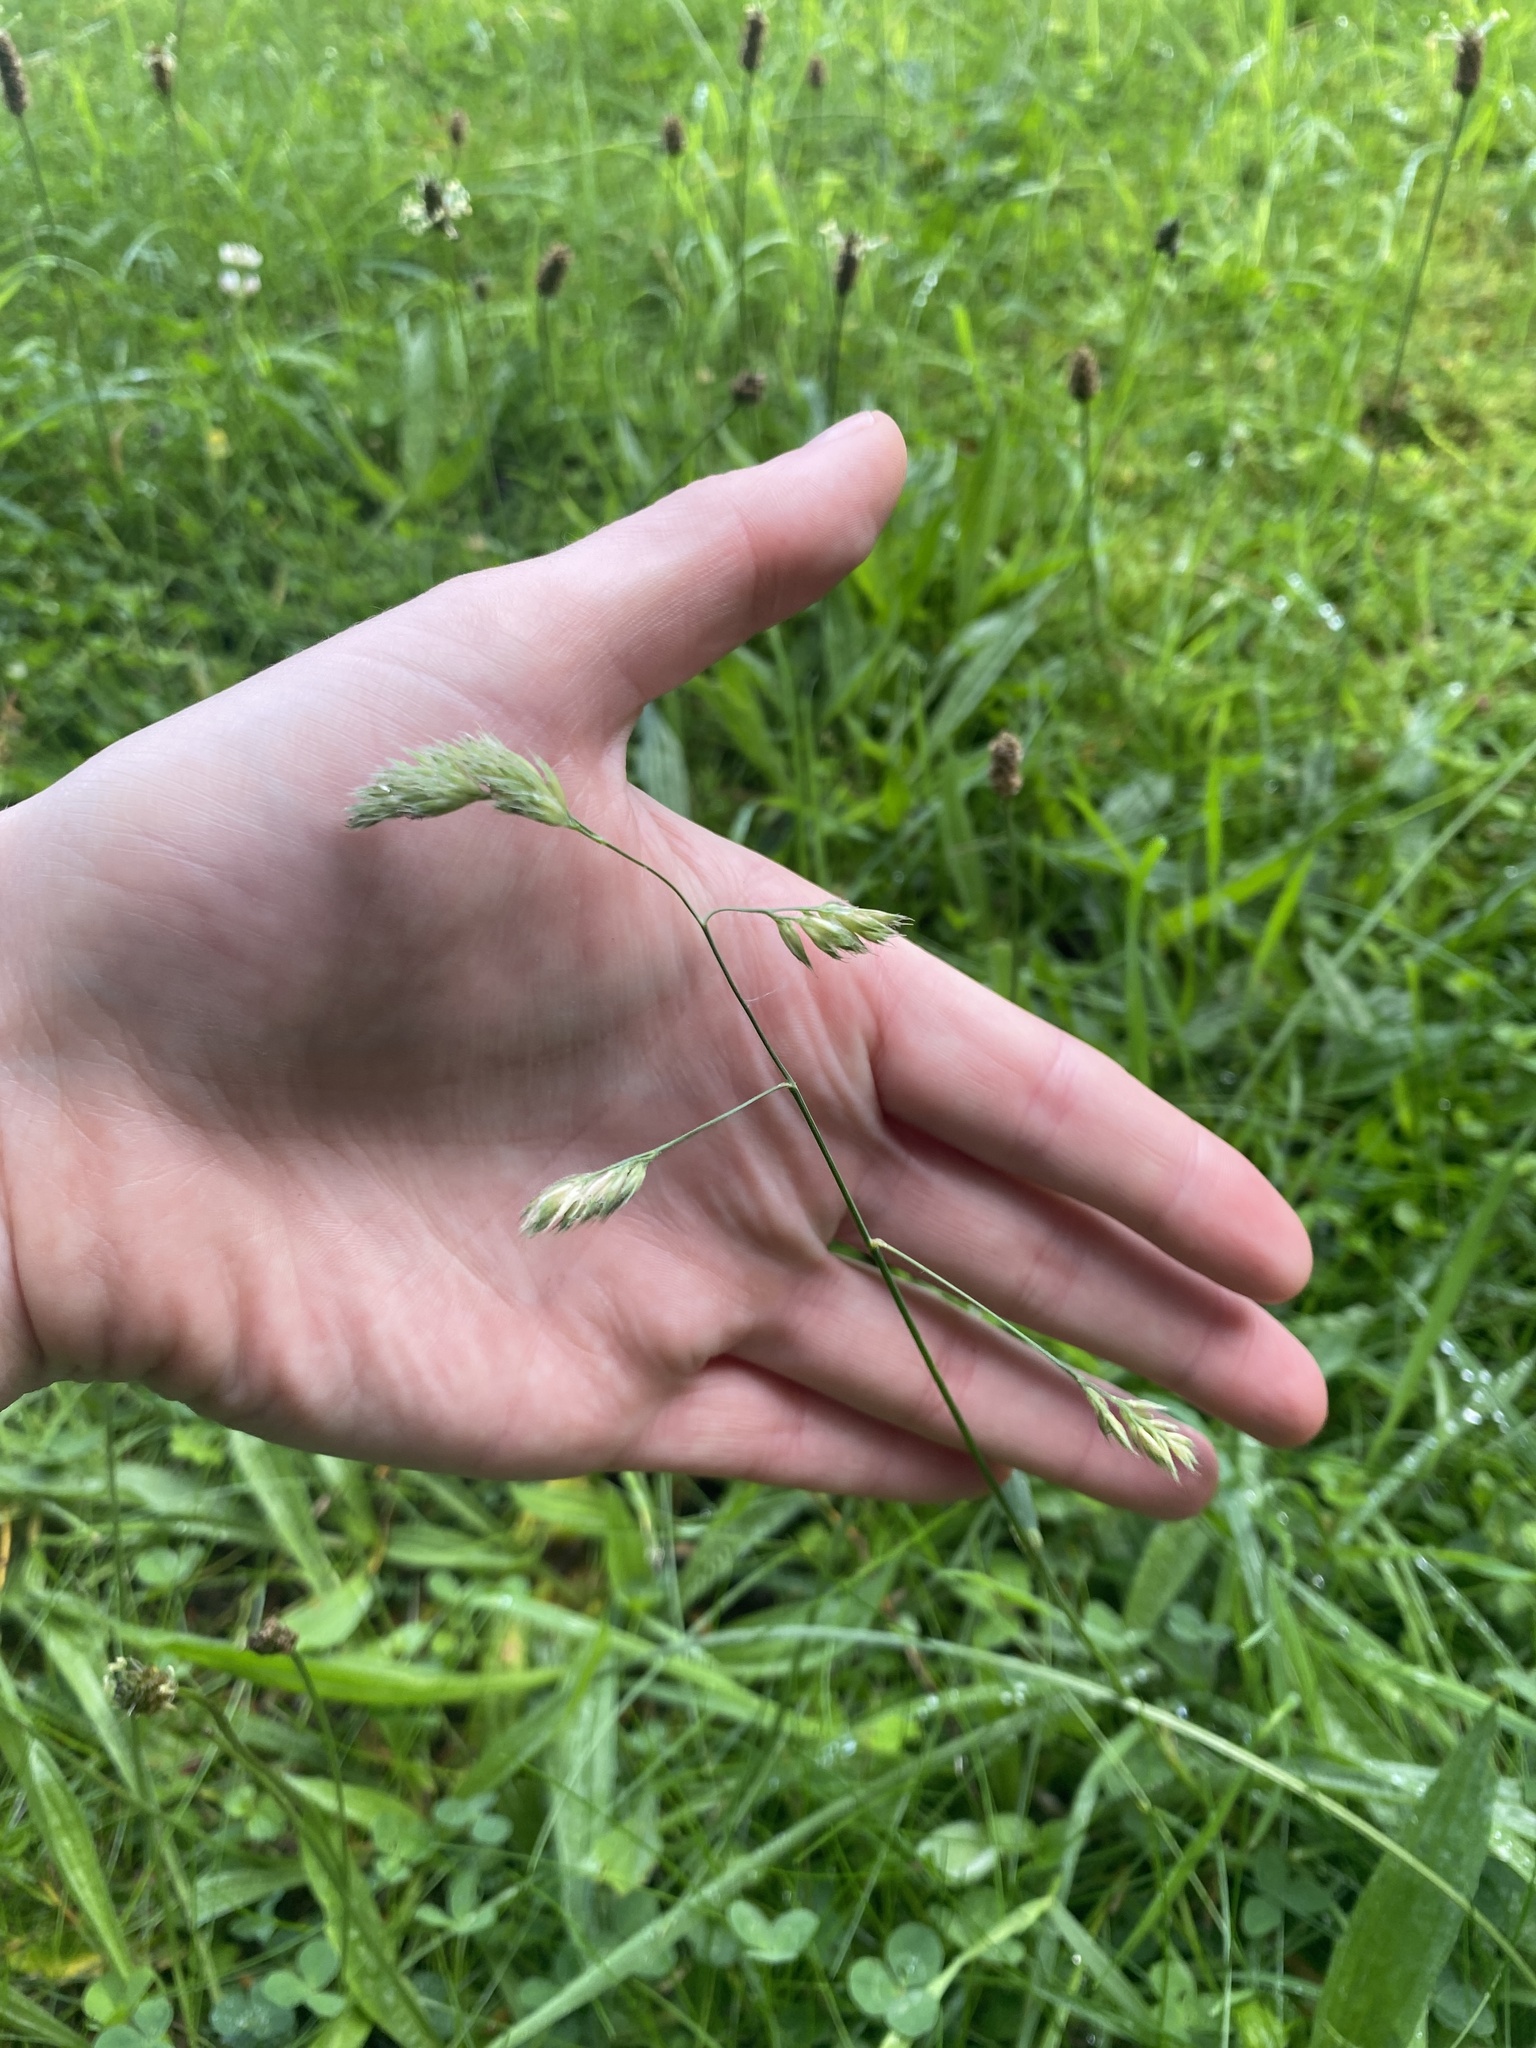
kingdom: Plantae
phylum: Tracheophyta
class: Liliopsida
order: Poales
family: Poaceae
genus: Dactylis
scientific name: Dactylis glomerata
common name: Orchardgrass
